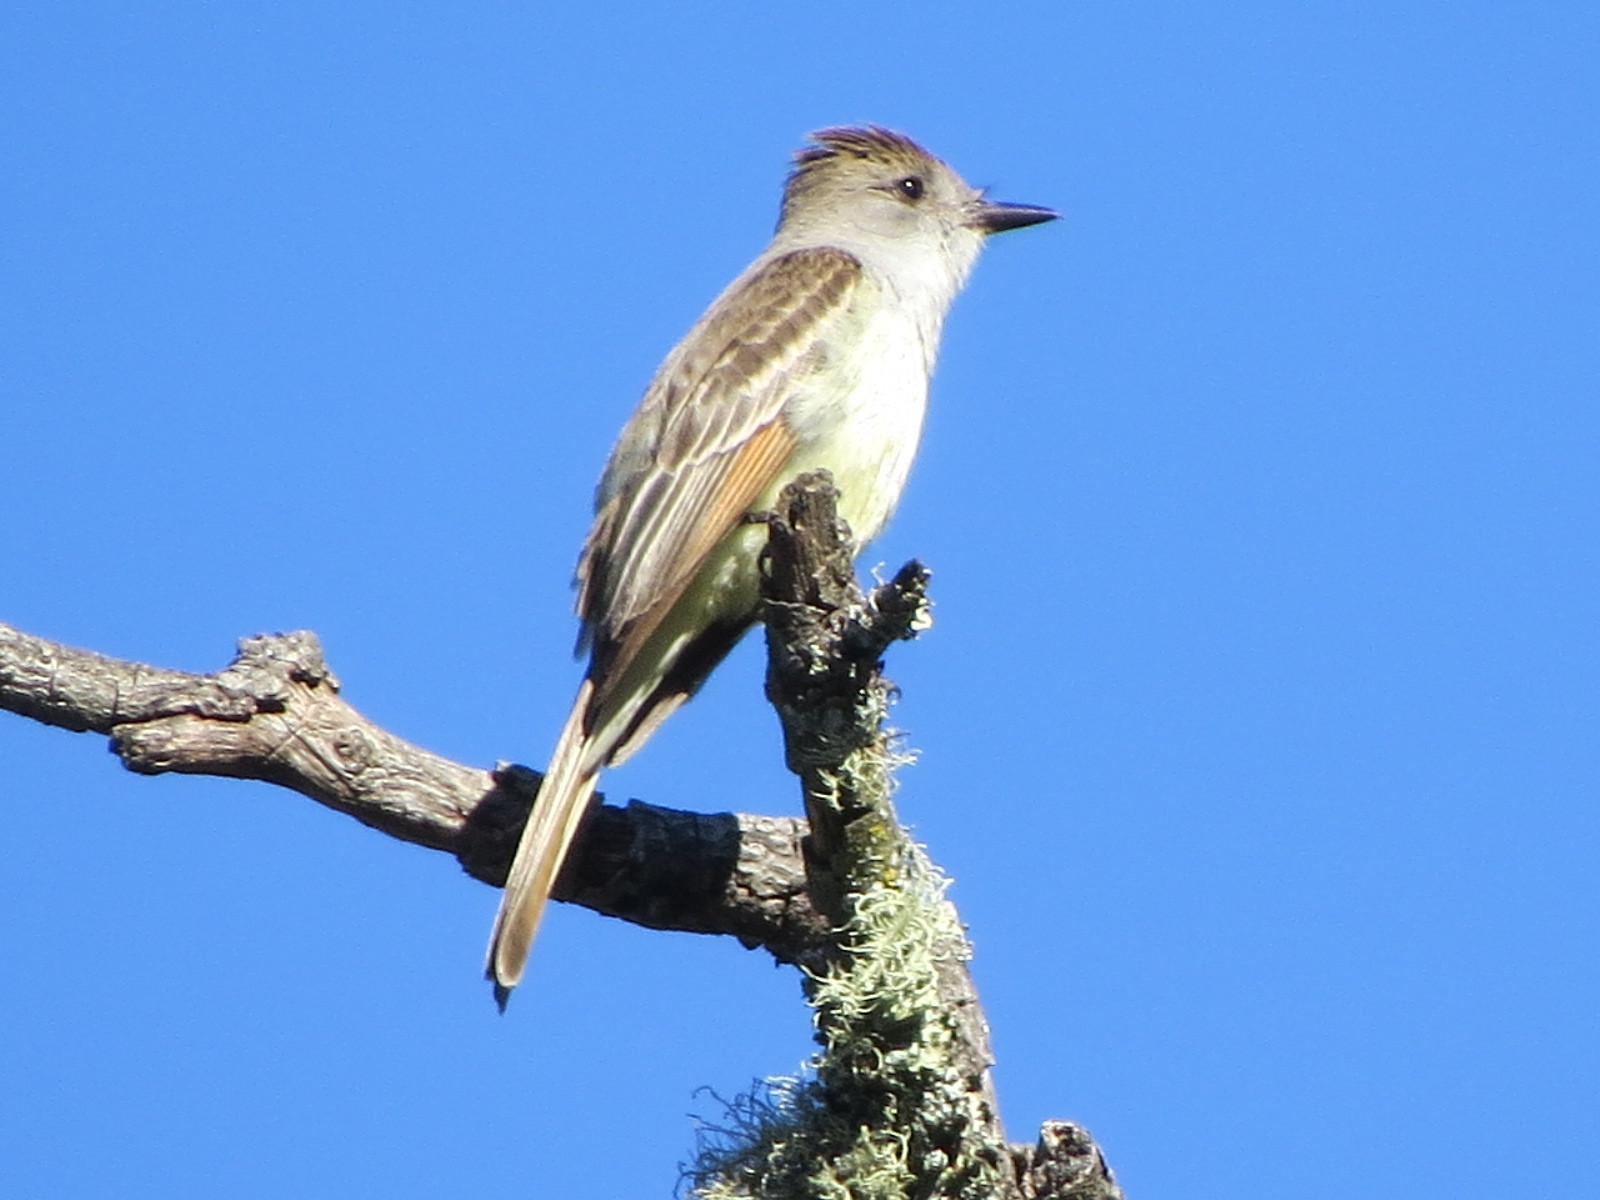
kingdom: Animalia
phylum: Chordata
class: Aves
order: Passeriformes
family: Tyrannidae
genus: Myiarchus
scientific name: Myiarchus cinerascens
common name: Ash-throated flycatcher
